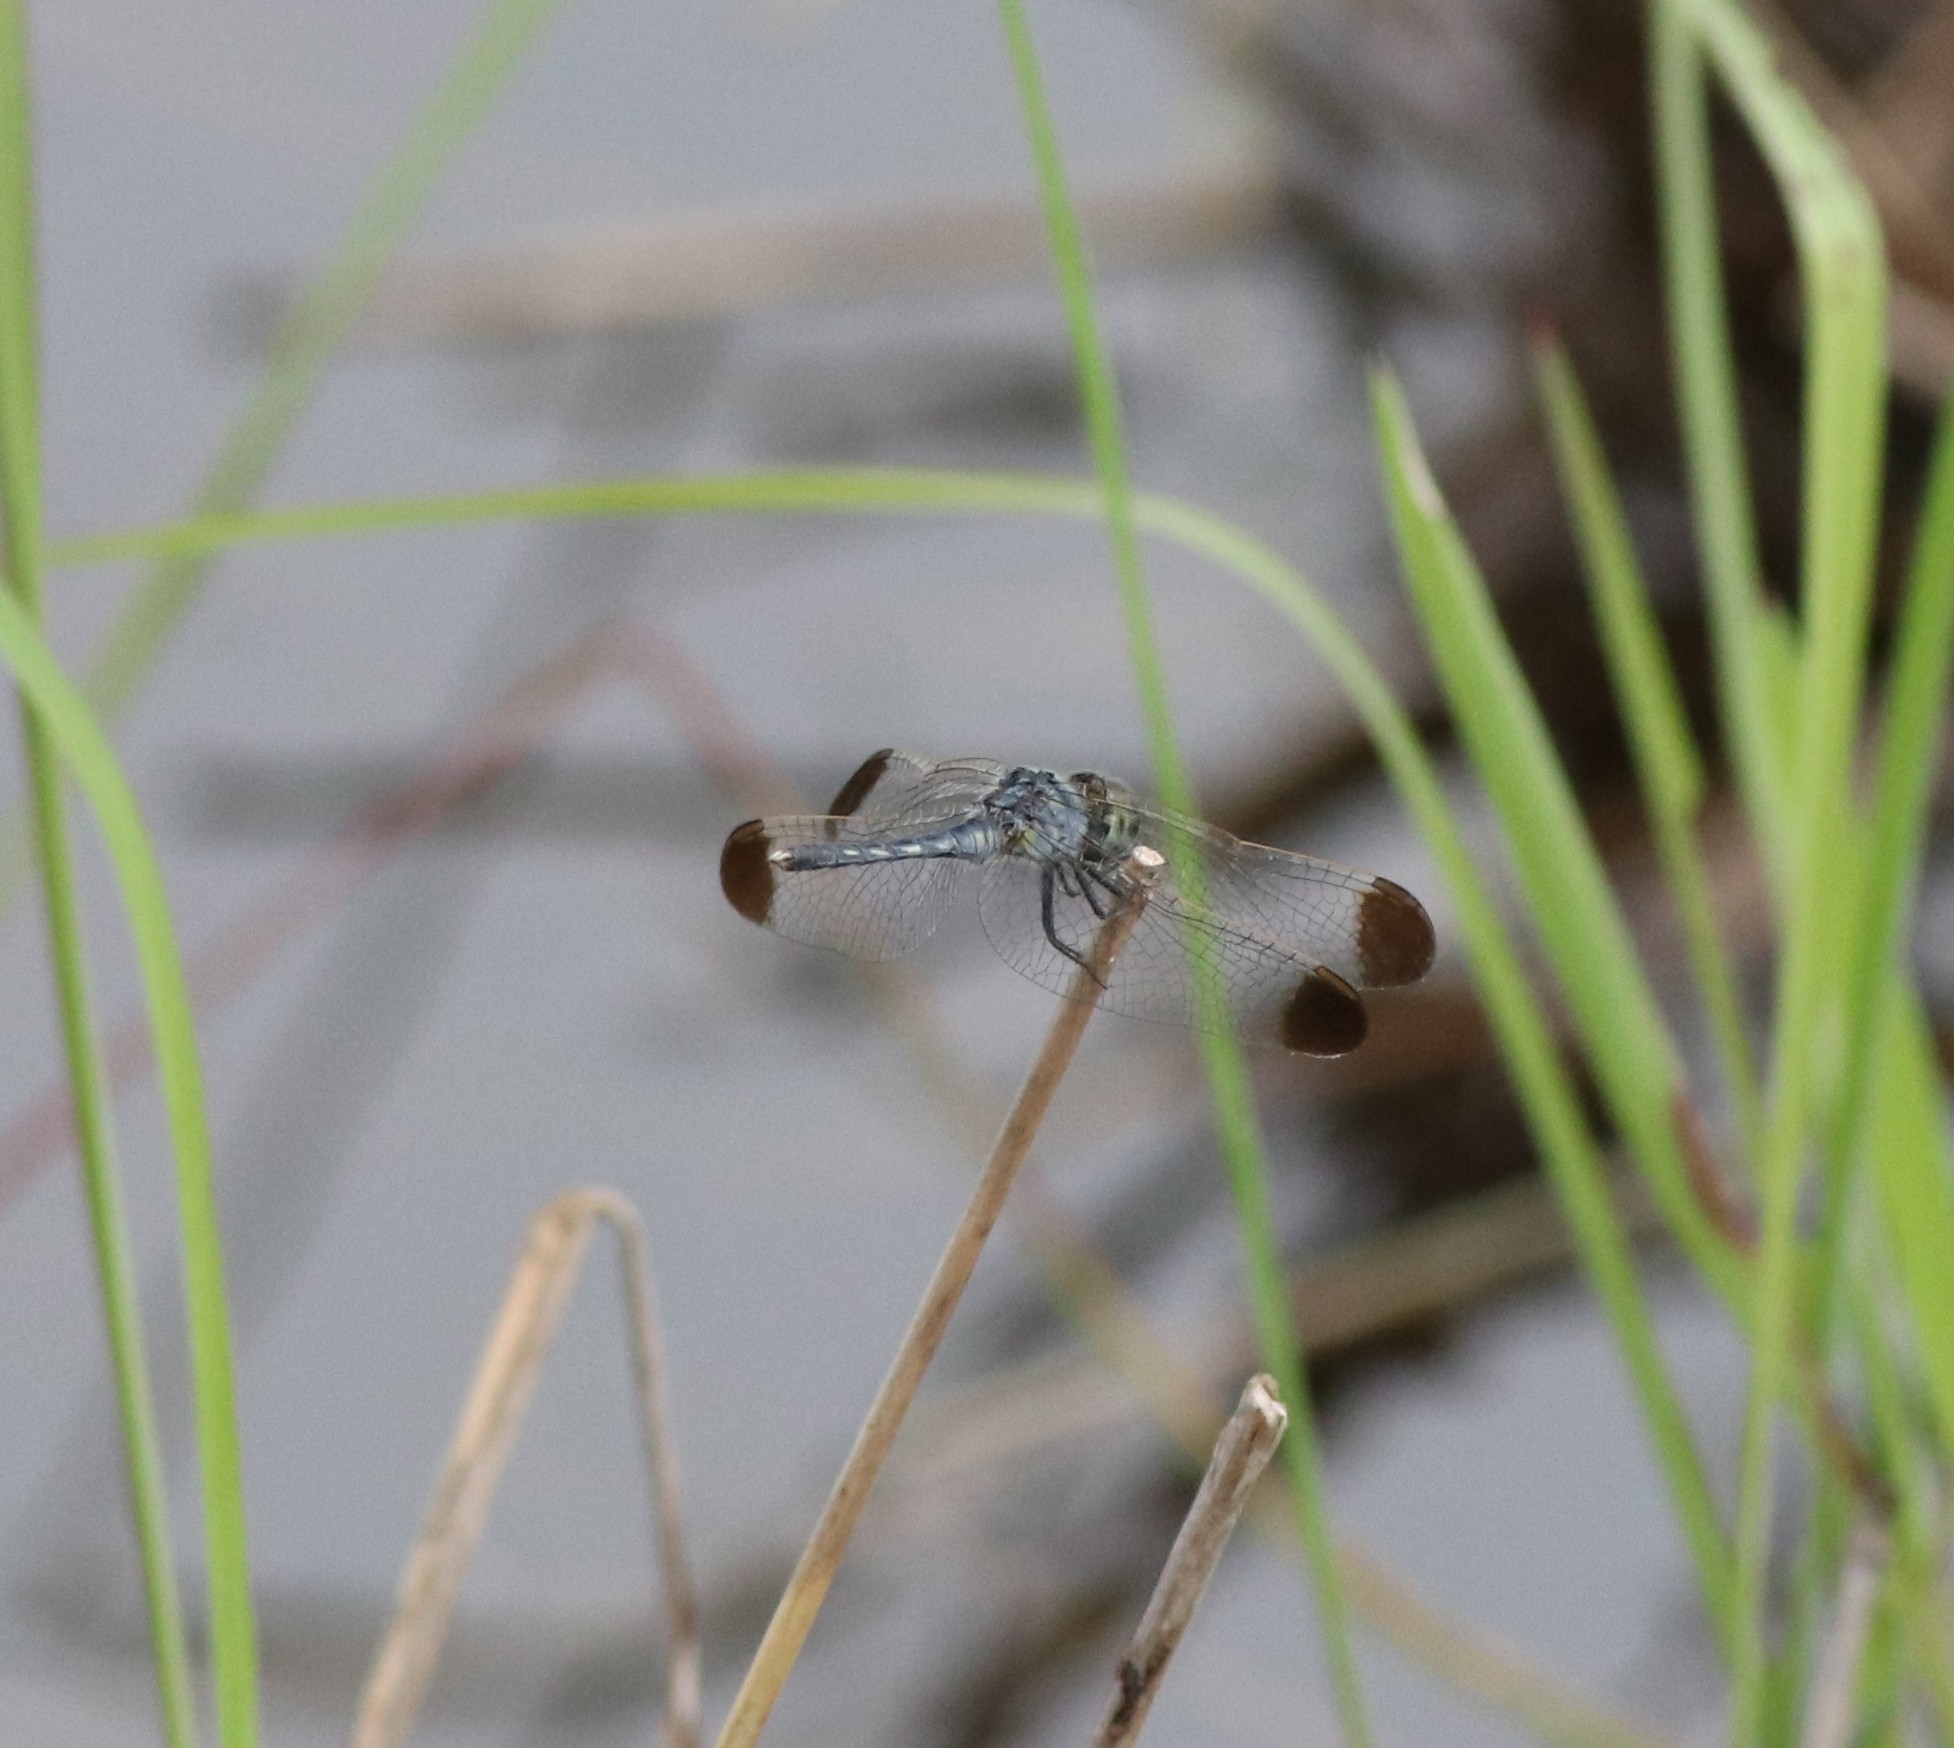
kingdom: Animalia
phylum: Arthropoda
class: Insecta
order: Odonata
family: Libellulidae
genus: Diplacodes
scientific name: Diplacodes nebulosa
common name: Black-tipped percher
